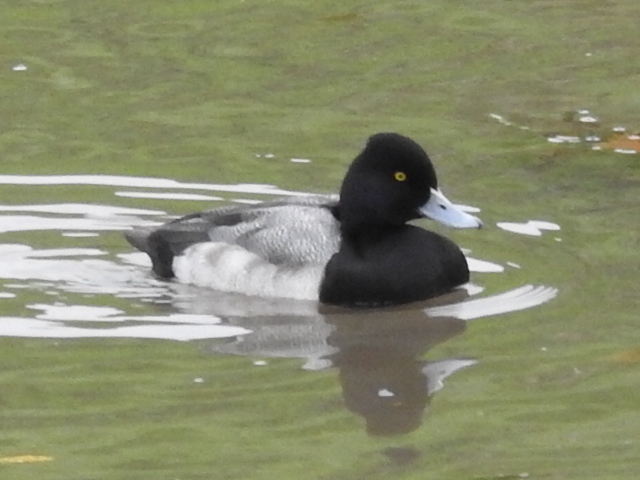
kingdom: Animalia
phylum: Chordata
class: Aves
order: Anseriformes
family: Anatidae
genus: Aythya
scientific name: Aythya affinis
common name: Lesser scaup
